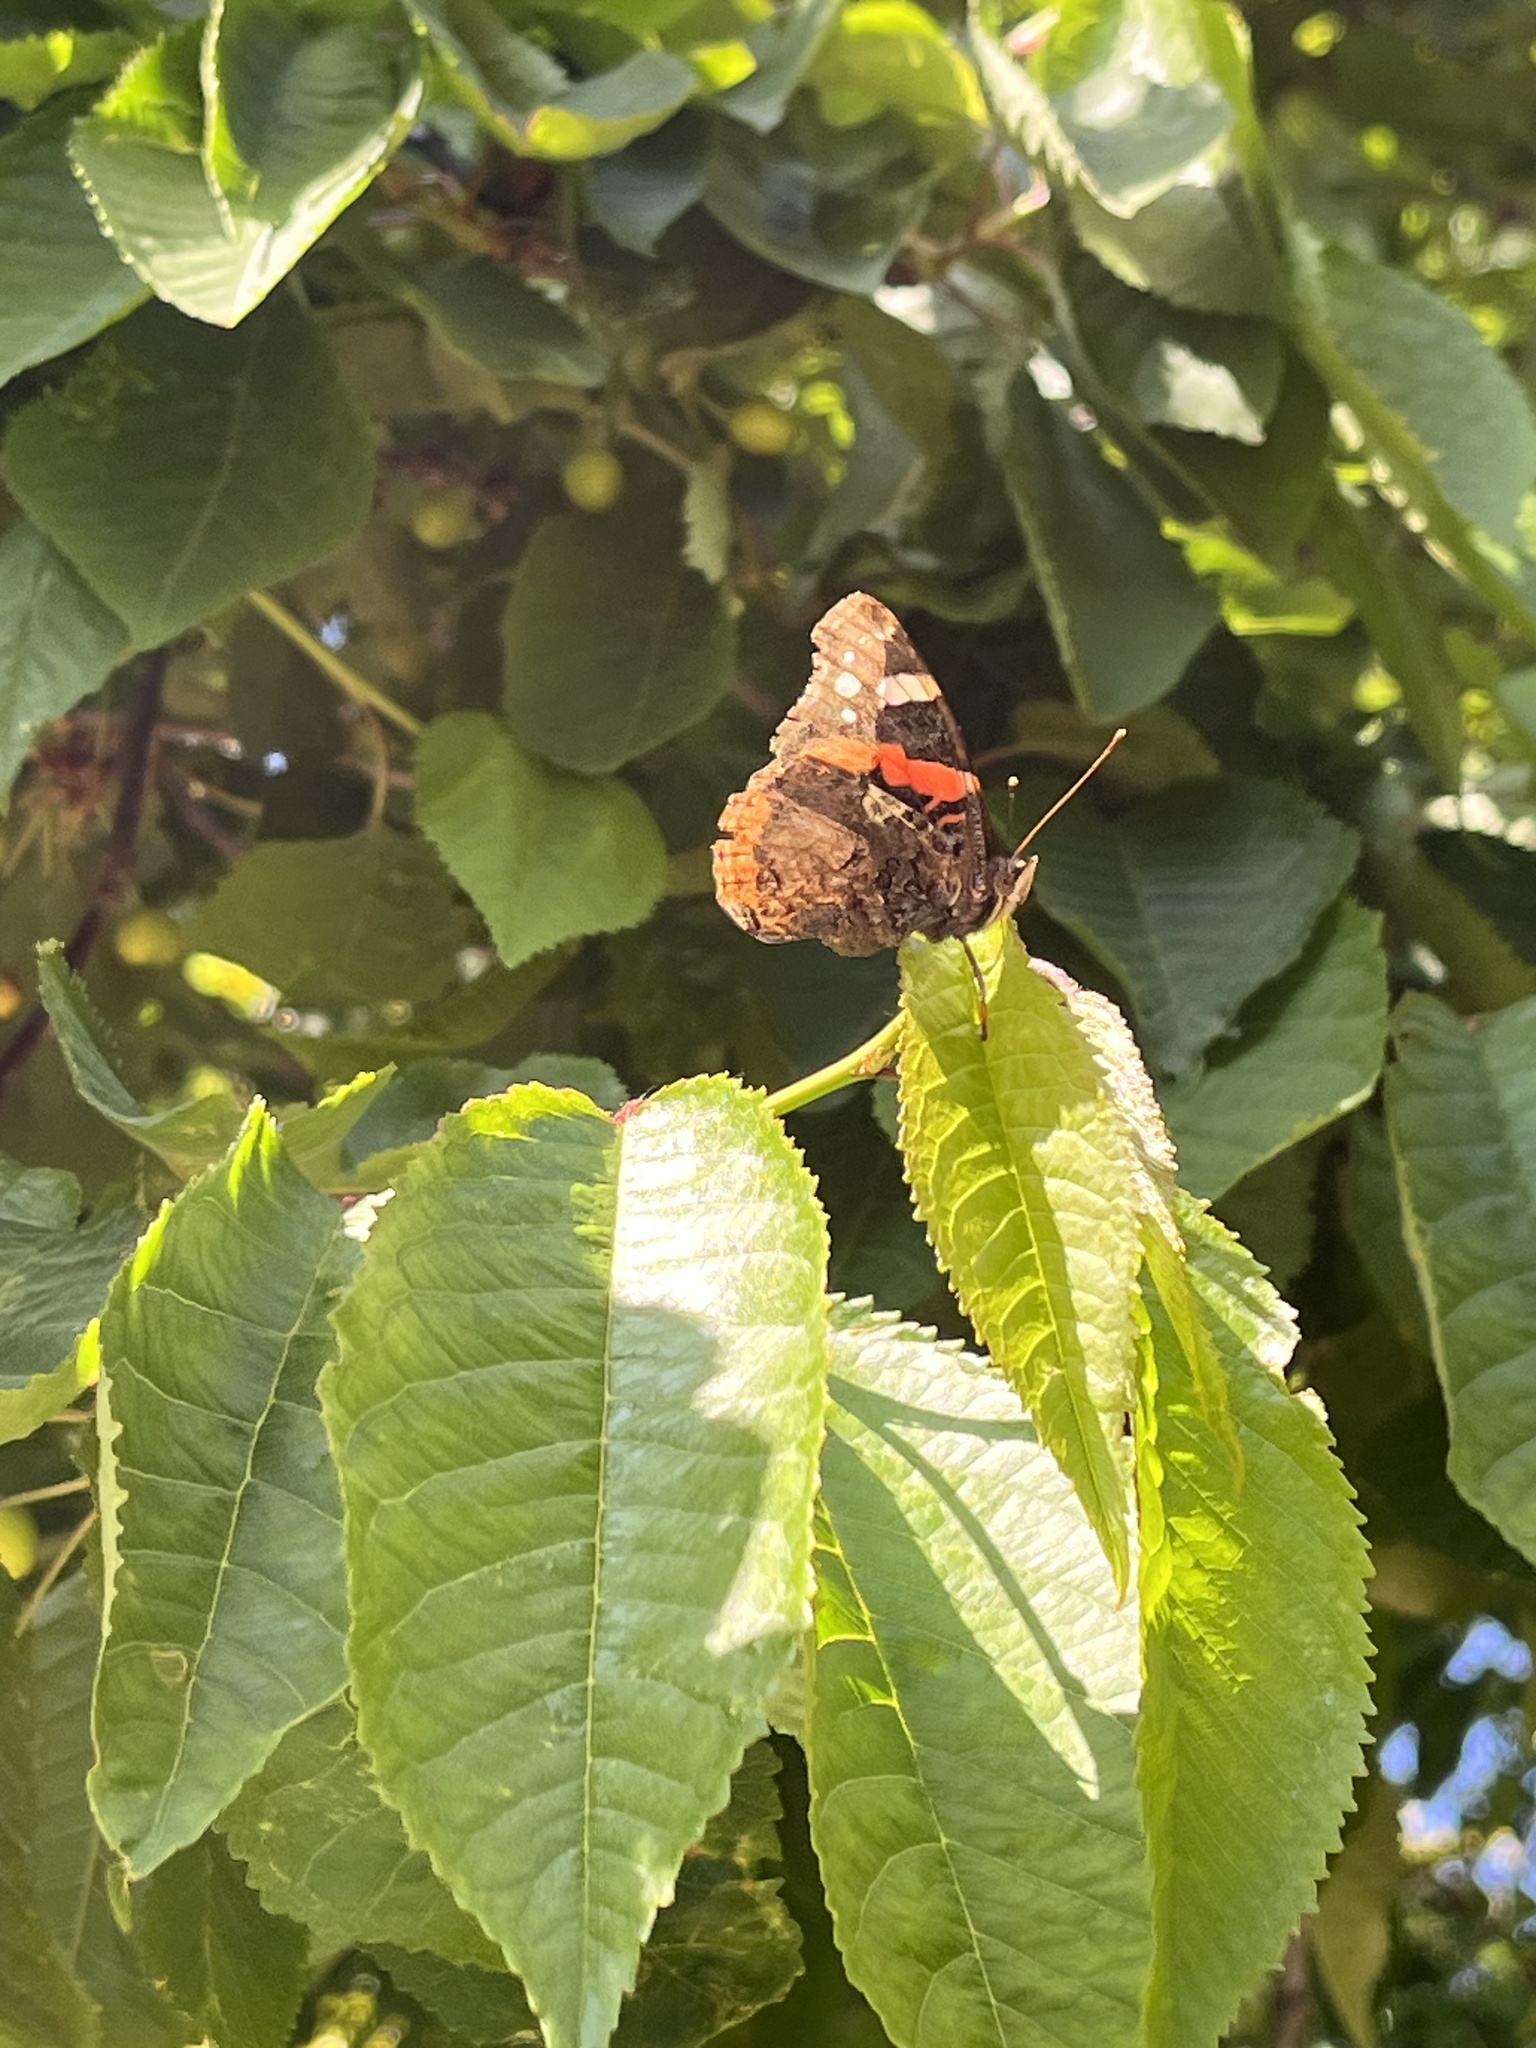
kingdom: Animalia
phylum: Arthropoda
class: Insecta
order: Lepidoptera
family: Nymphalidae
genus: Vanessa
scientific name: Vanessa atalanta
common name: Red admiral
